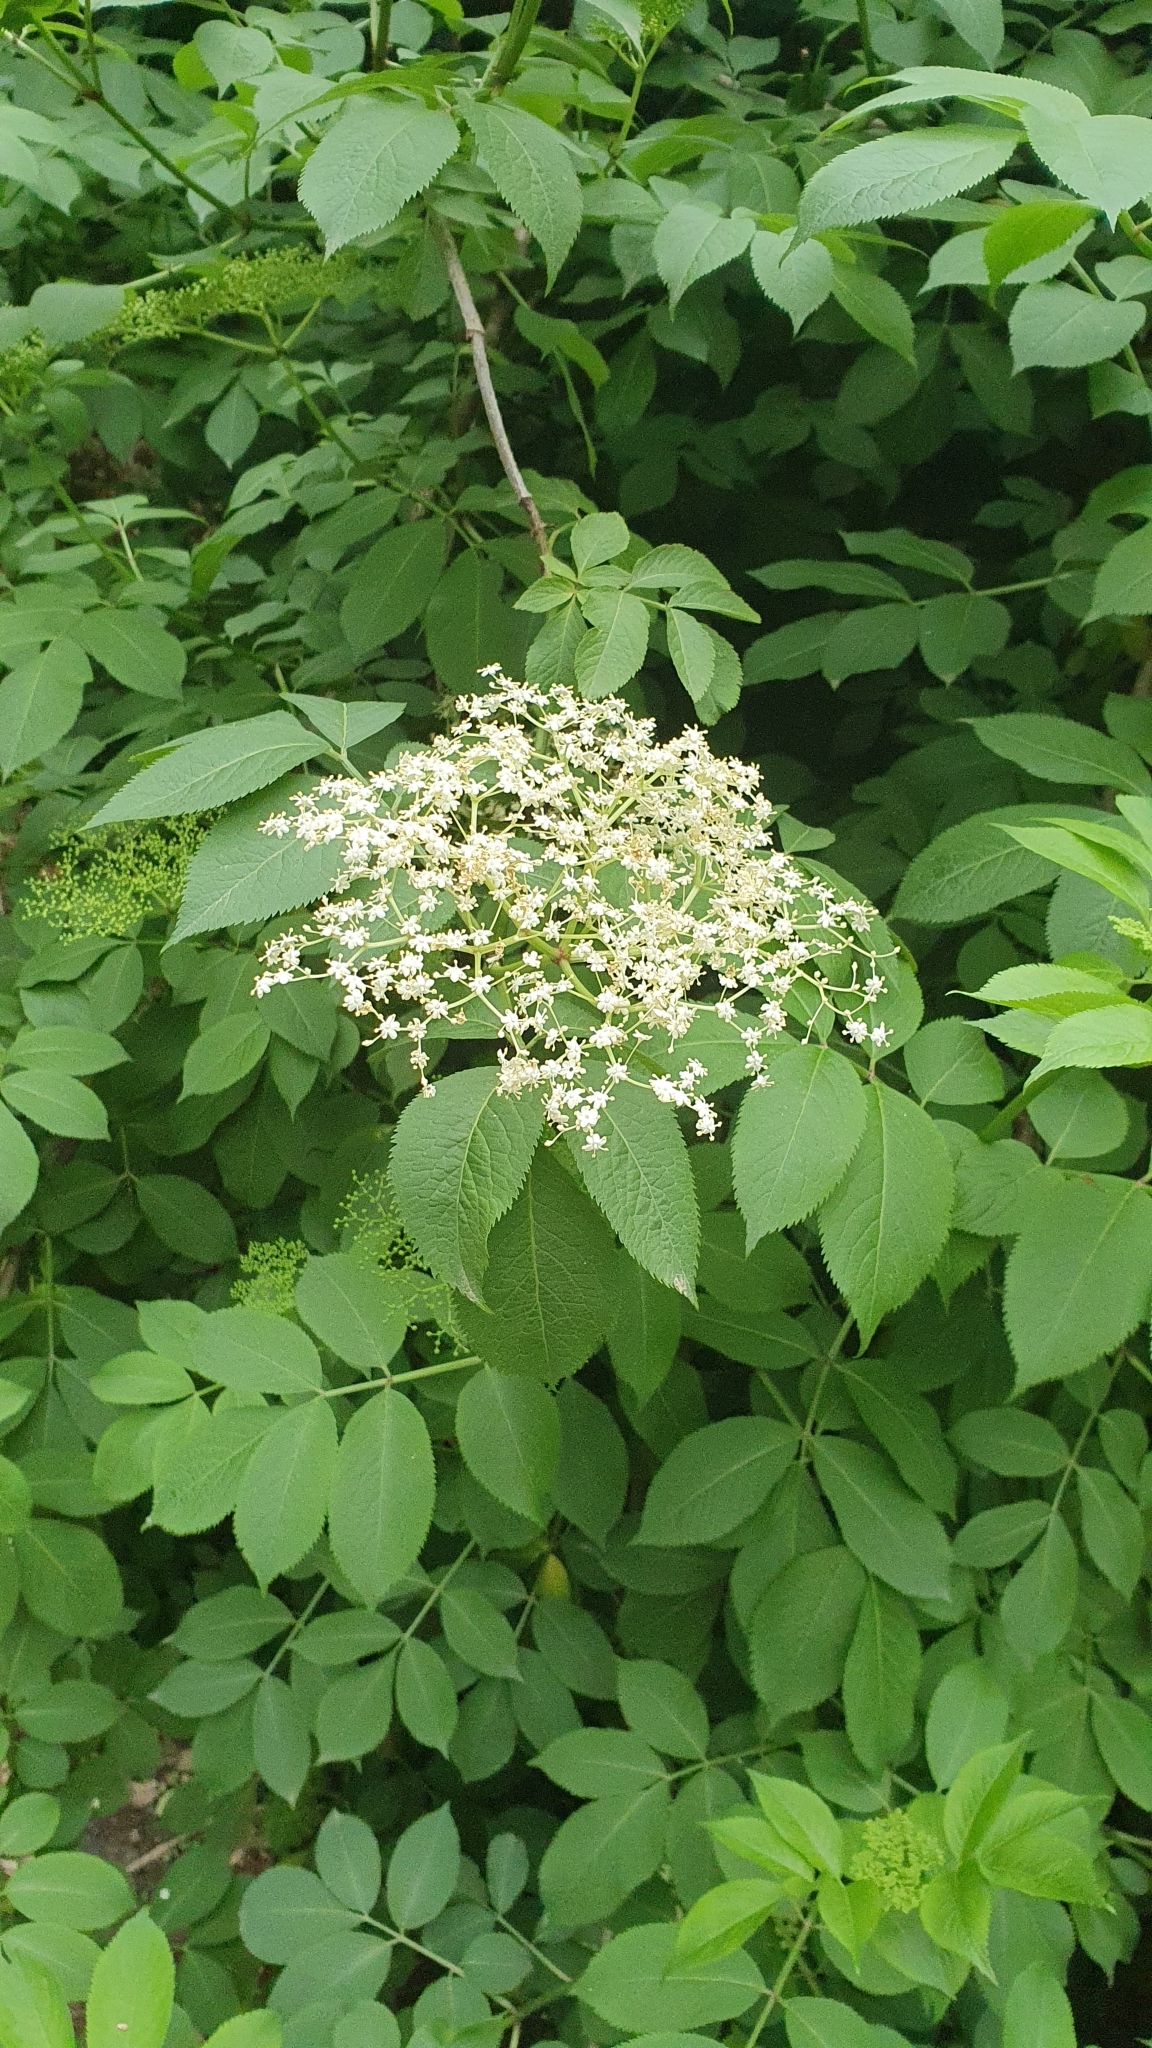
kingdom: Plantae
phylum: Tracheophyta
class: Magnoliopsida
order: Dipsacales
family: Viburnaceae
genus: Sambucus
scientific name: Sambucus nigra
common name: Elder
